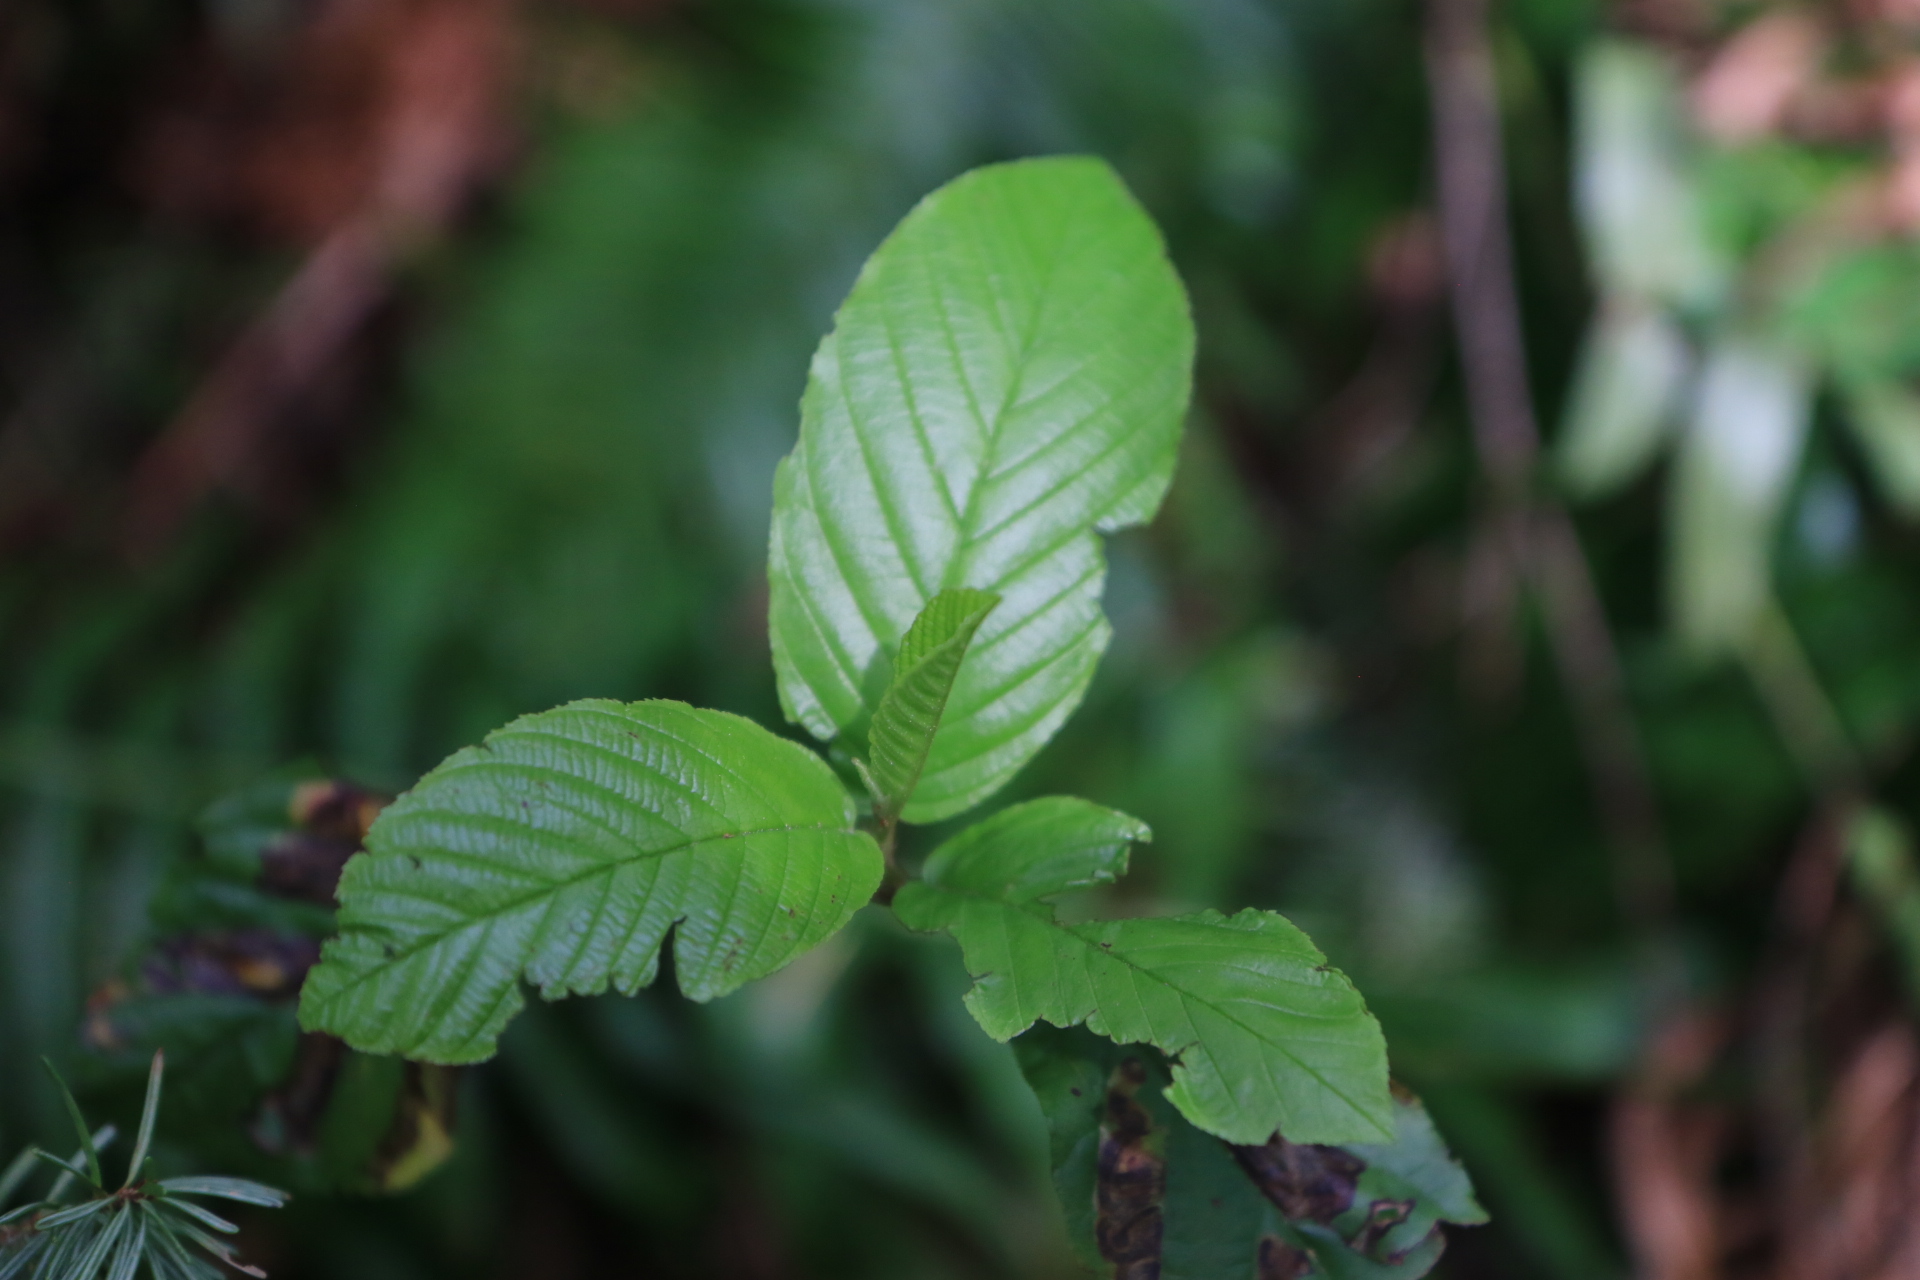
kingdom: Plantae
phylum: Tracheophyta
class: Magnoliopsida
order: Rosales
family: Rhamnaceae
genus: Frangula
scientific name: Frangula purshiana
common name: Cascara buckthorn
